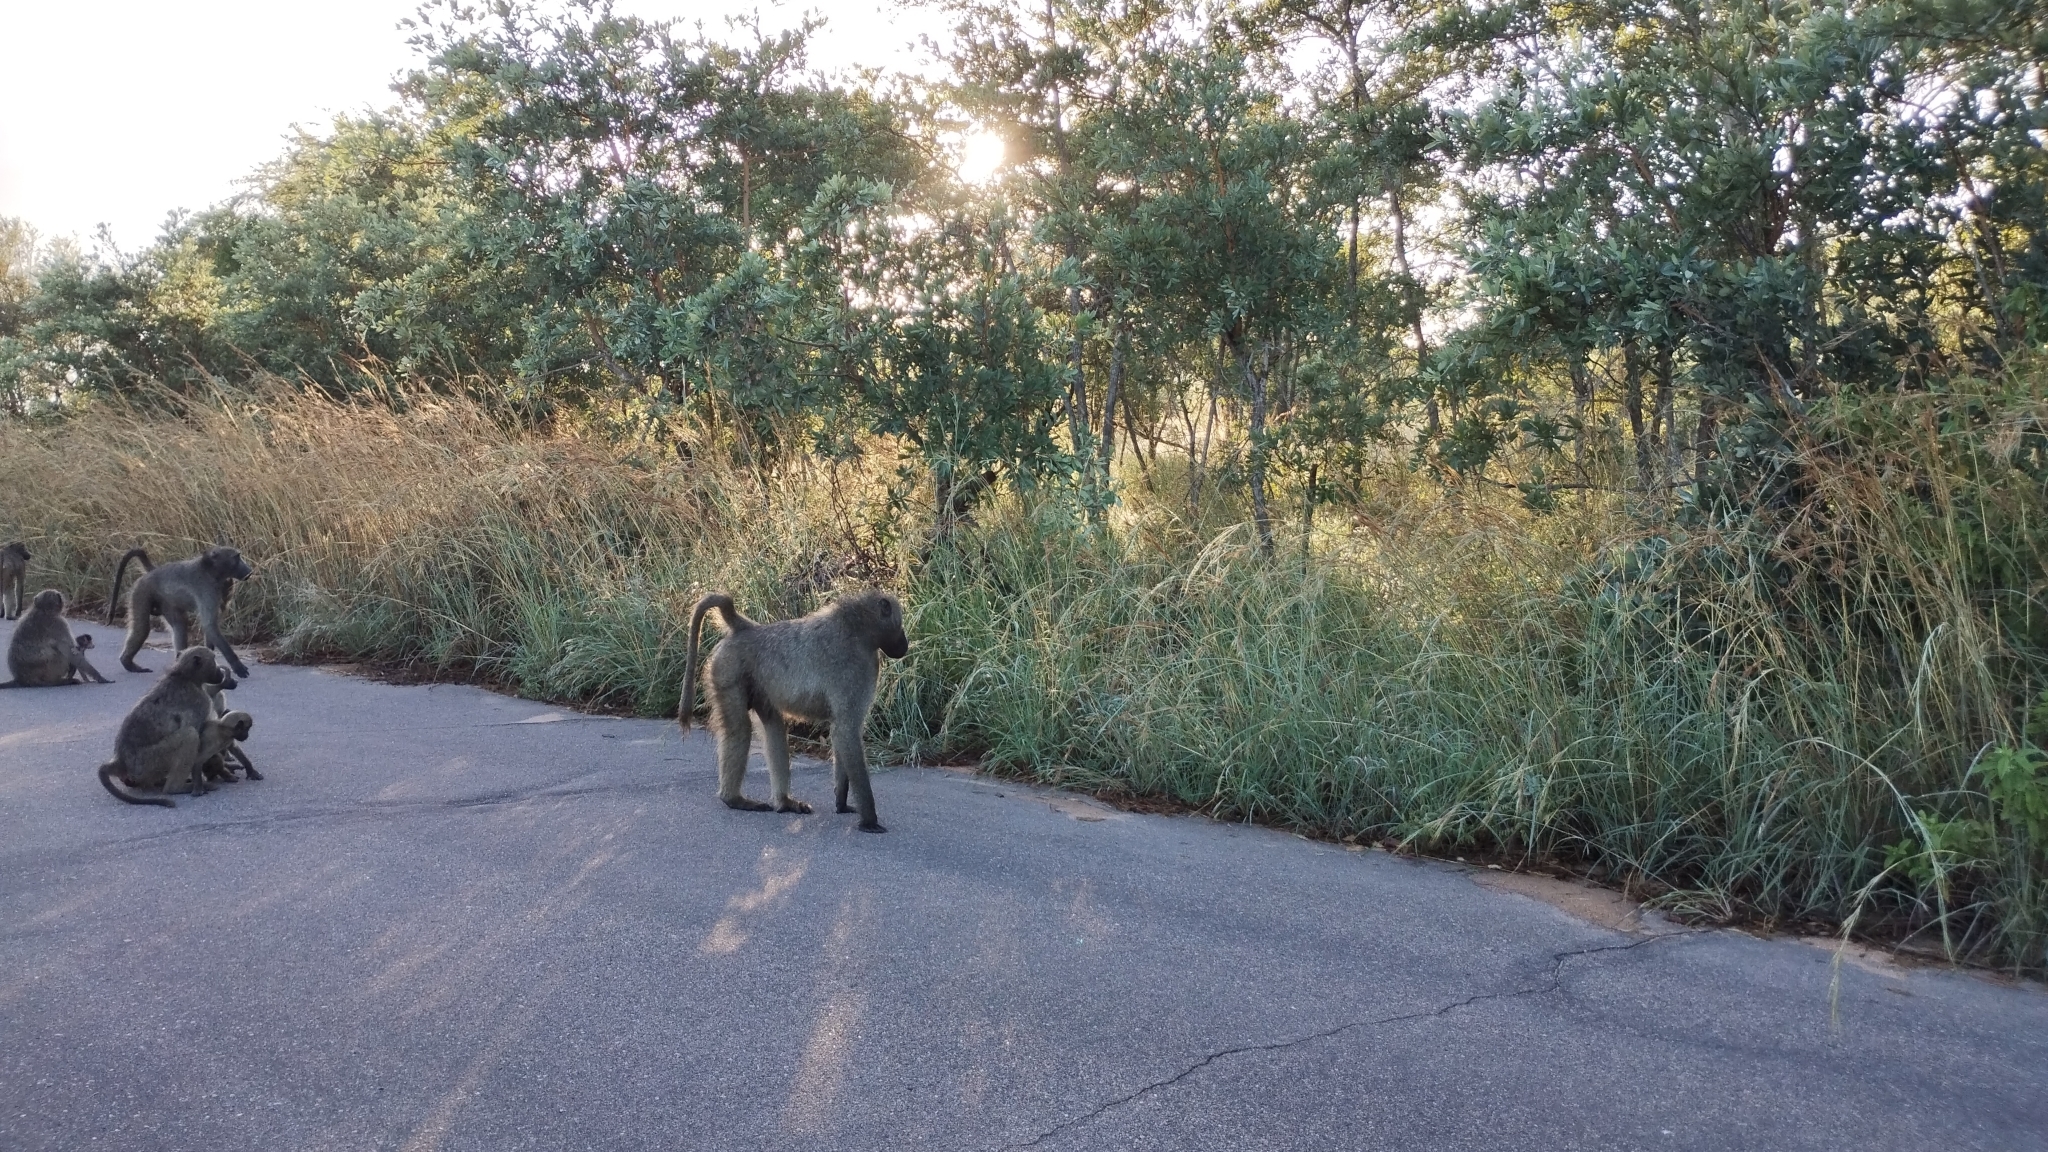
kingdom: Animalia
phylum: Chordata
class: Mammalia
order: Primates
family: Cercopithecidae
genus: Papio
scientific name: Papio ursinus
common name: Chacma baboon
